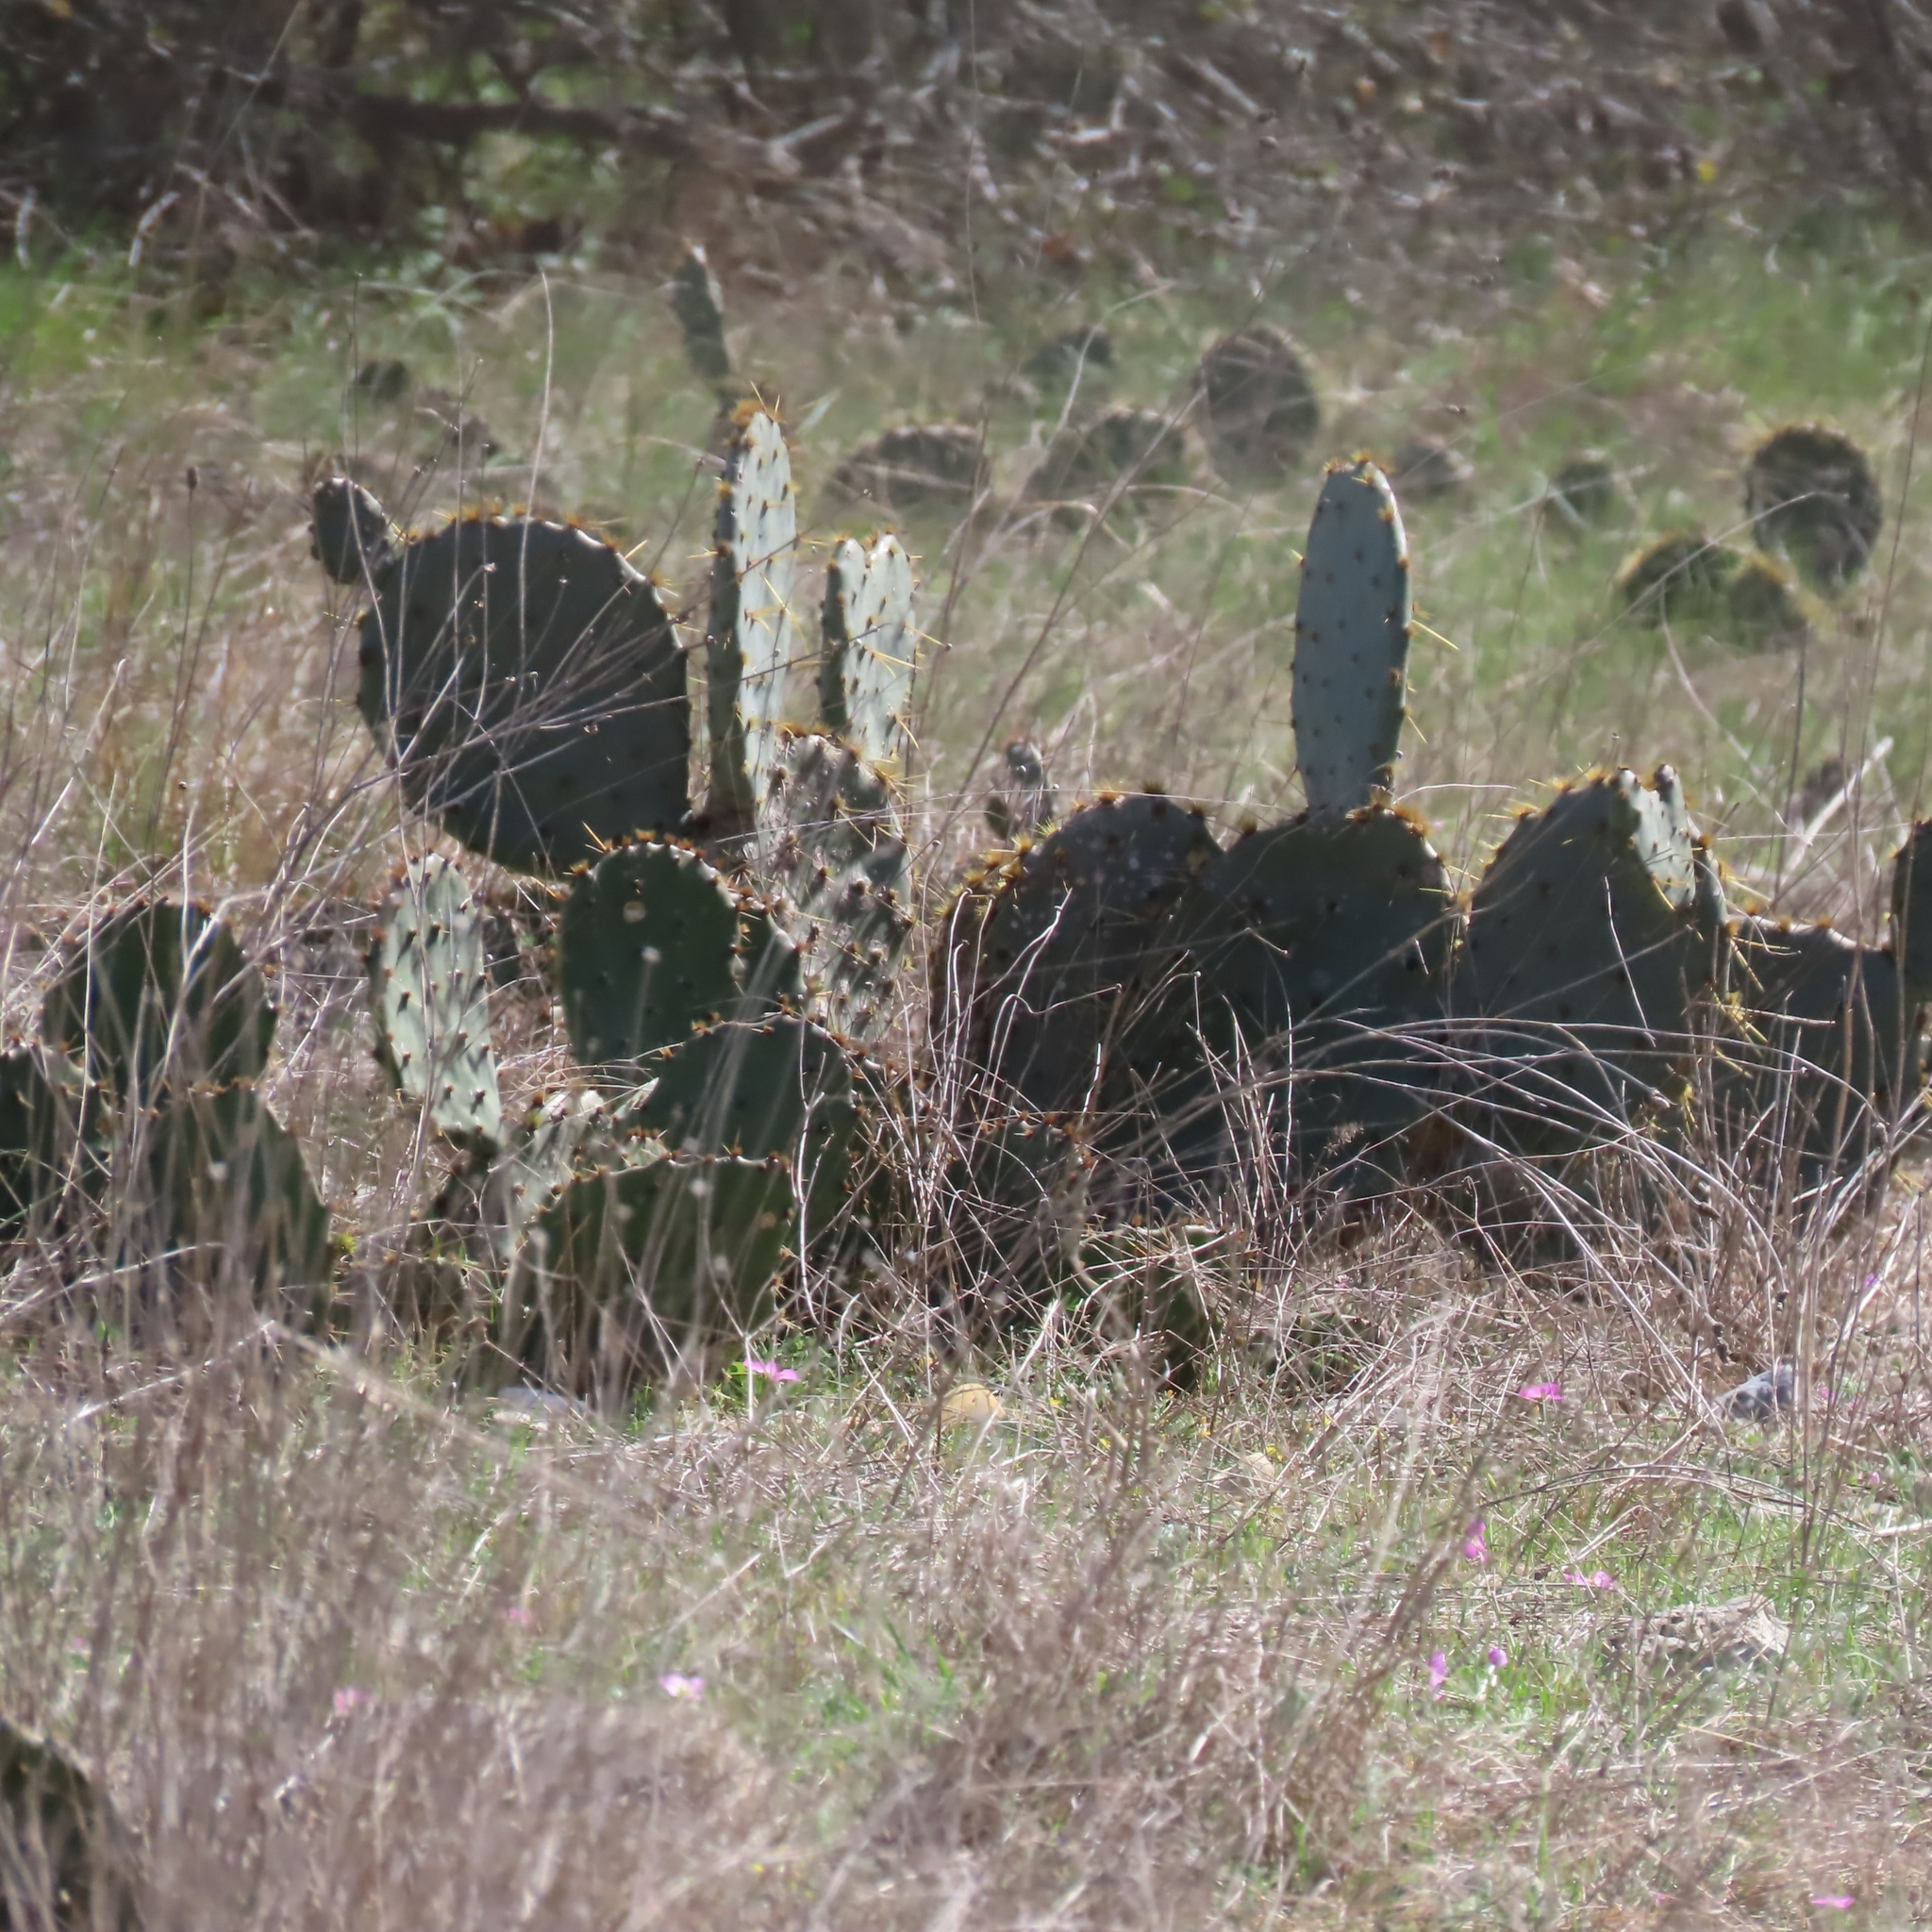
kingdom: Plantae
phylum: Tracheophyta
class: Magnoliopsida
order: Caryophyllales
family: Cactaceae
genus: Opuntia
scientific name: Opuntia engelmannii
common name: Cactus-apple
